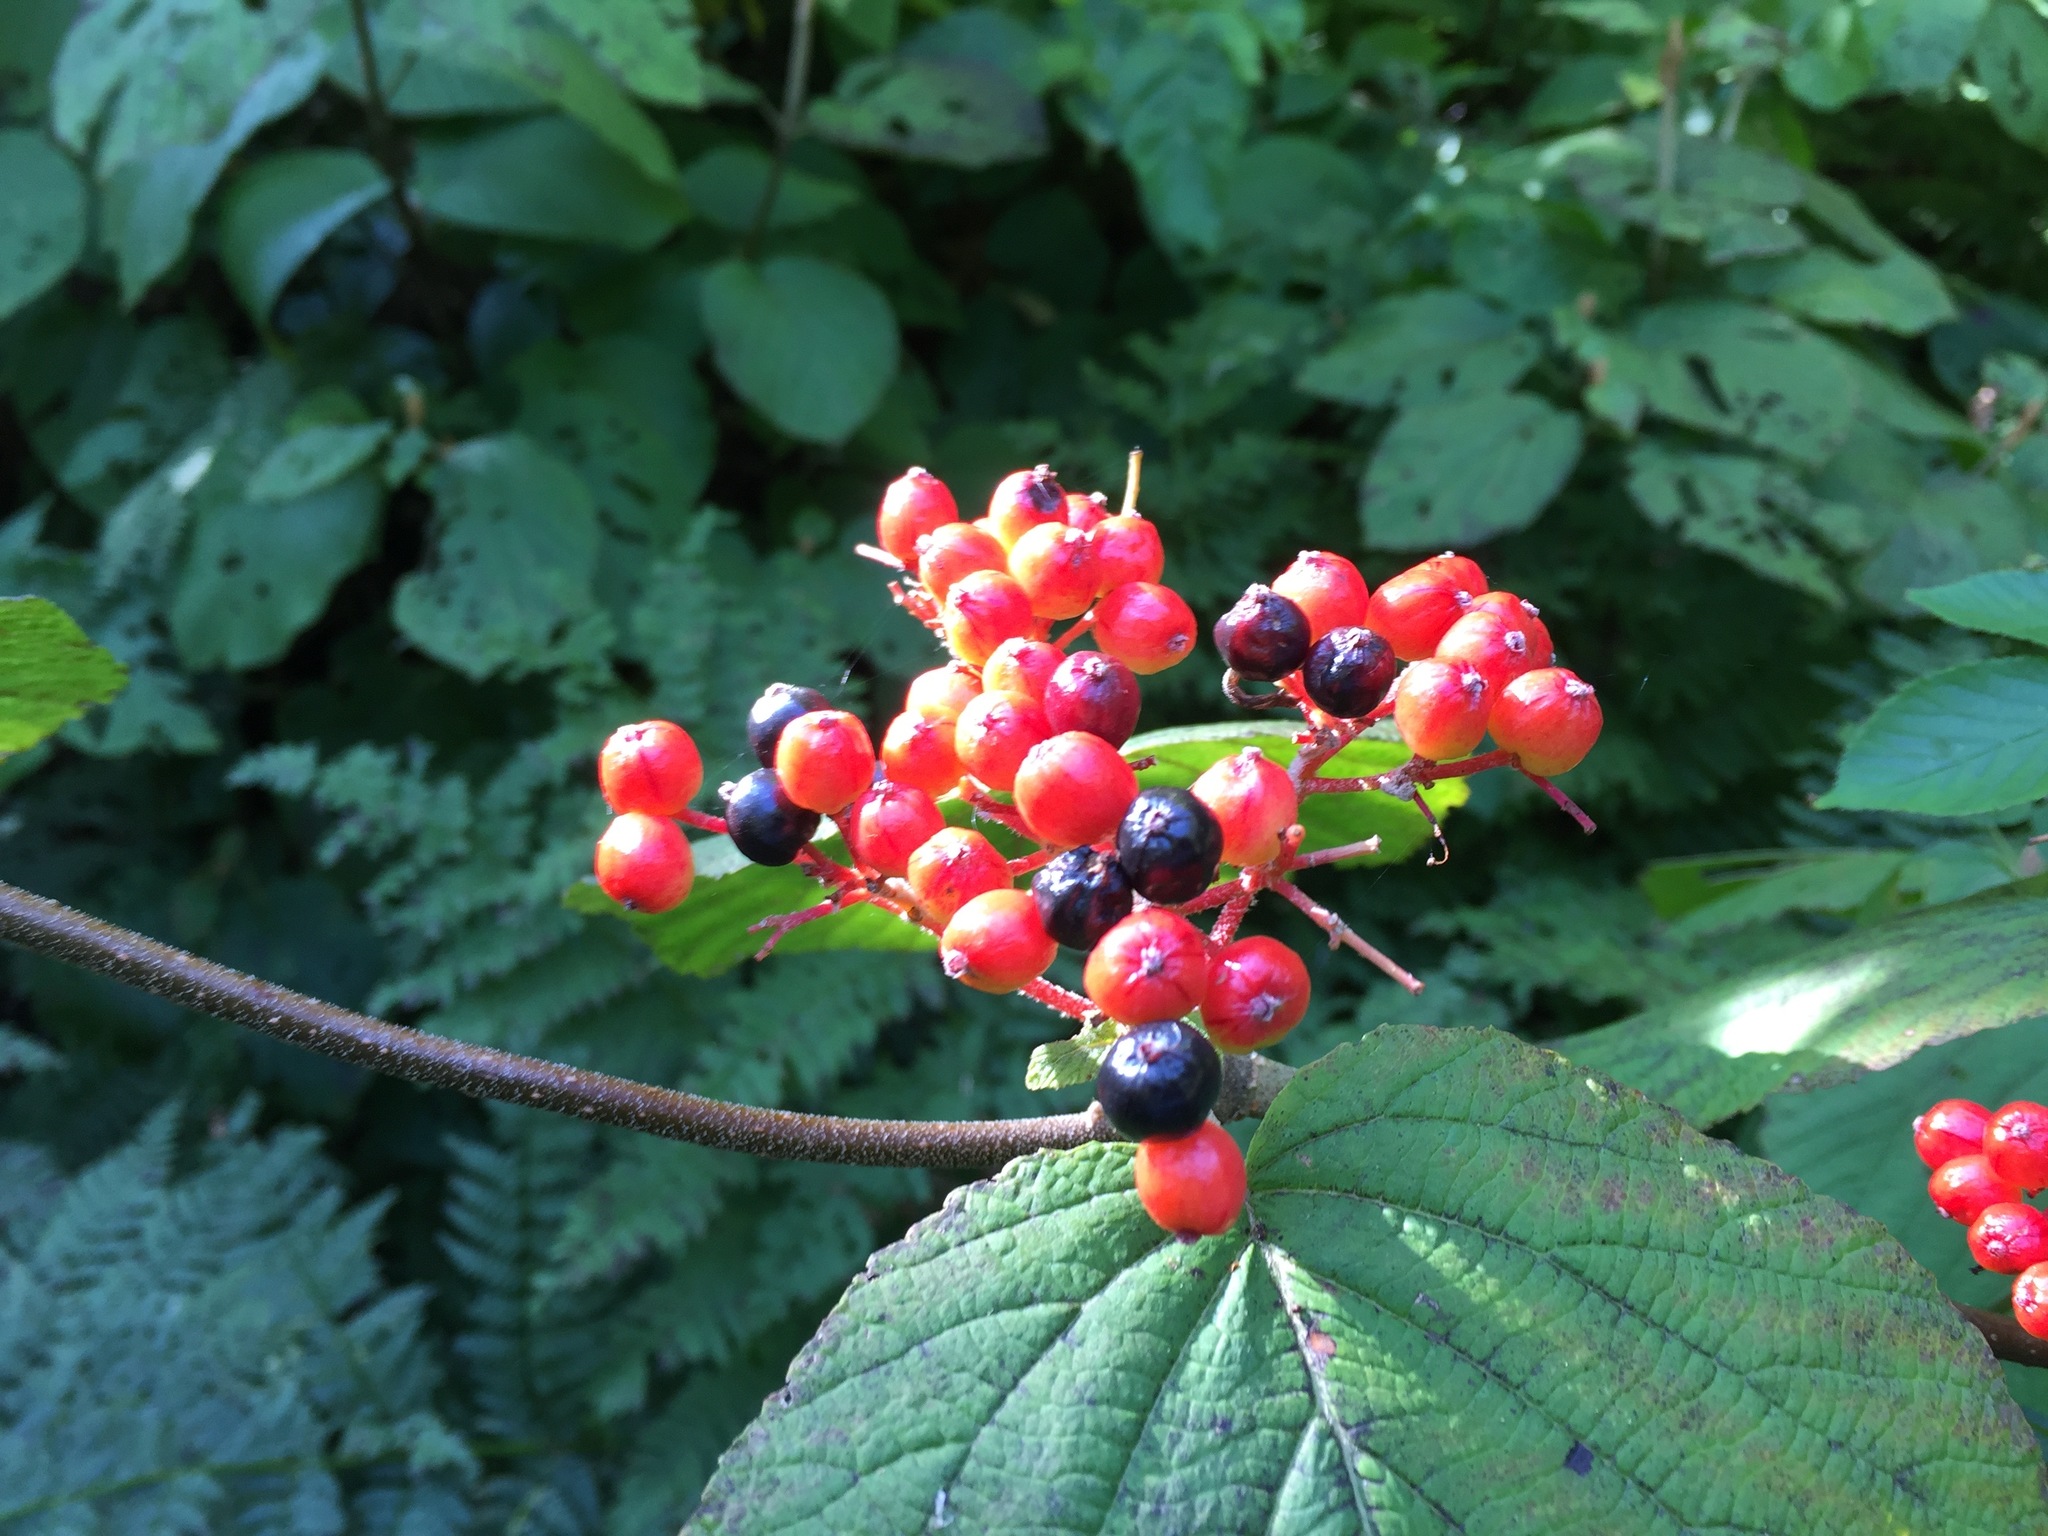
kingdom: Plantae
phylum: Tracheophyta
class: Magnoliopsida
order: Dipsacales
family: Viburnaceae
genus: Viburnum
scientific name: Viburnum lantanoides
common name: Hobblebush
